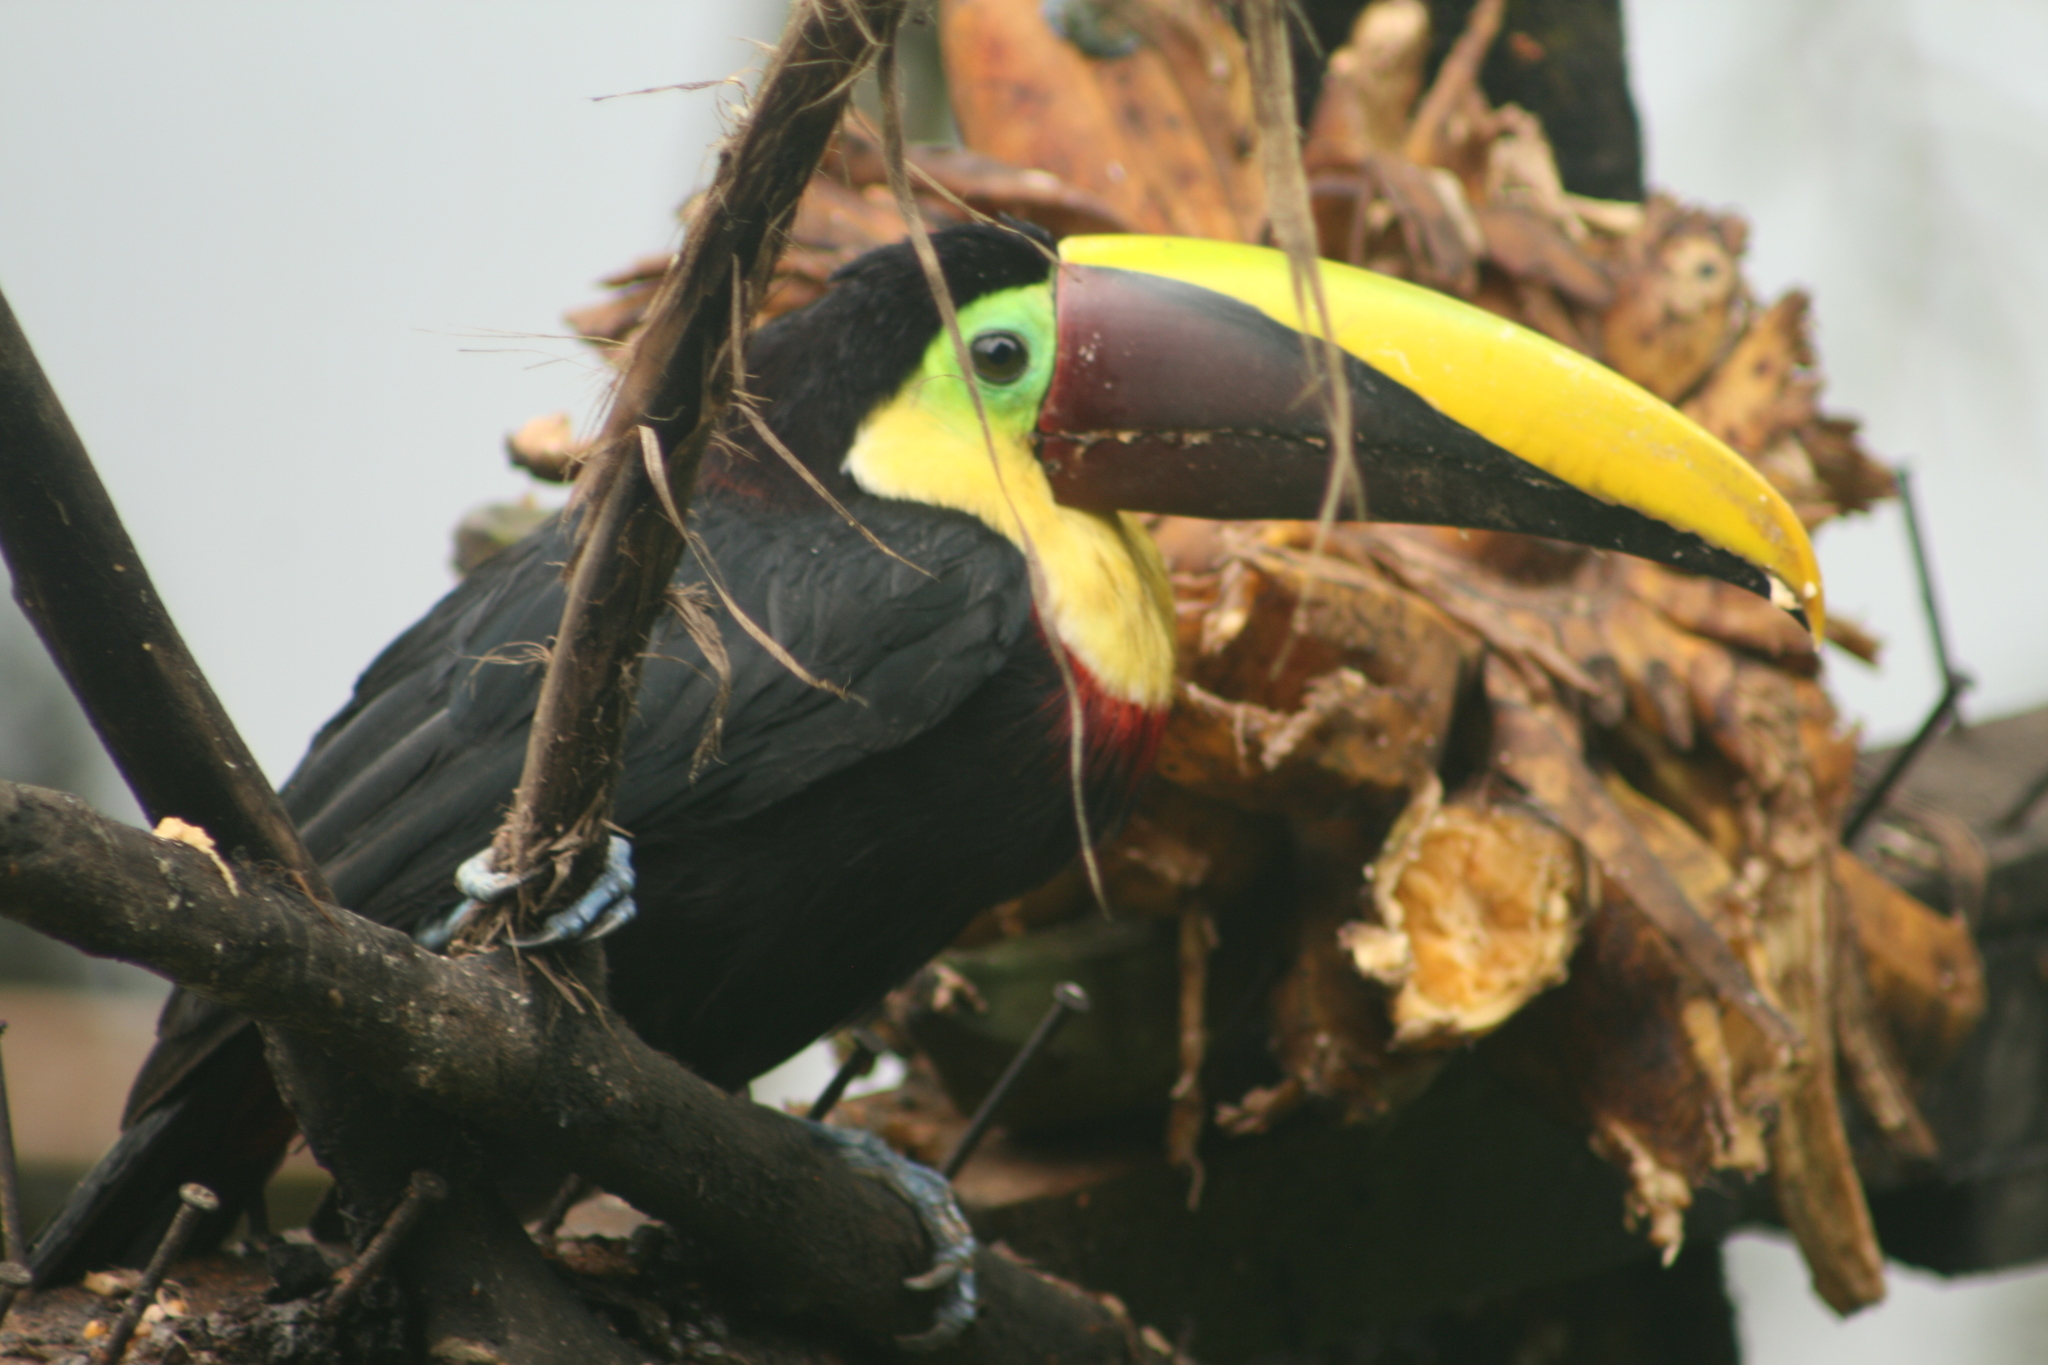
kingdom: Animalia
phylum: Chordata
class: Aves
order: Piciformes
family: Ramphastidae
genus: Ramphastos
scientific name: Ramphastos ambiguus
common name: Yellow-throated toucan
